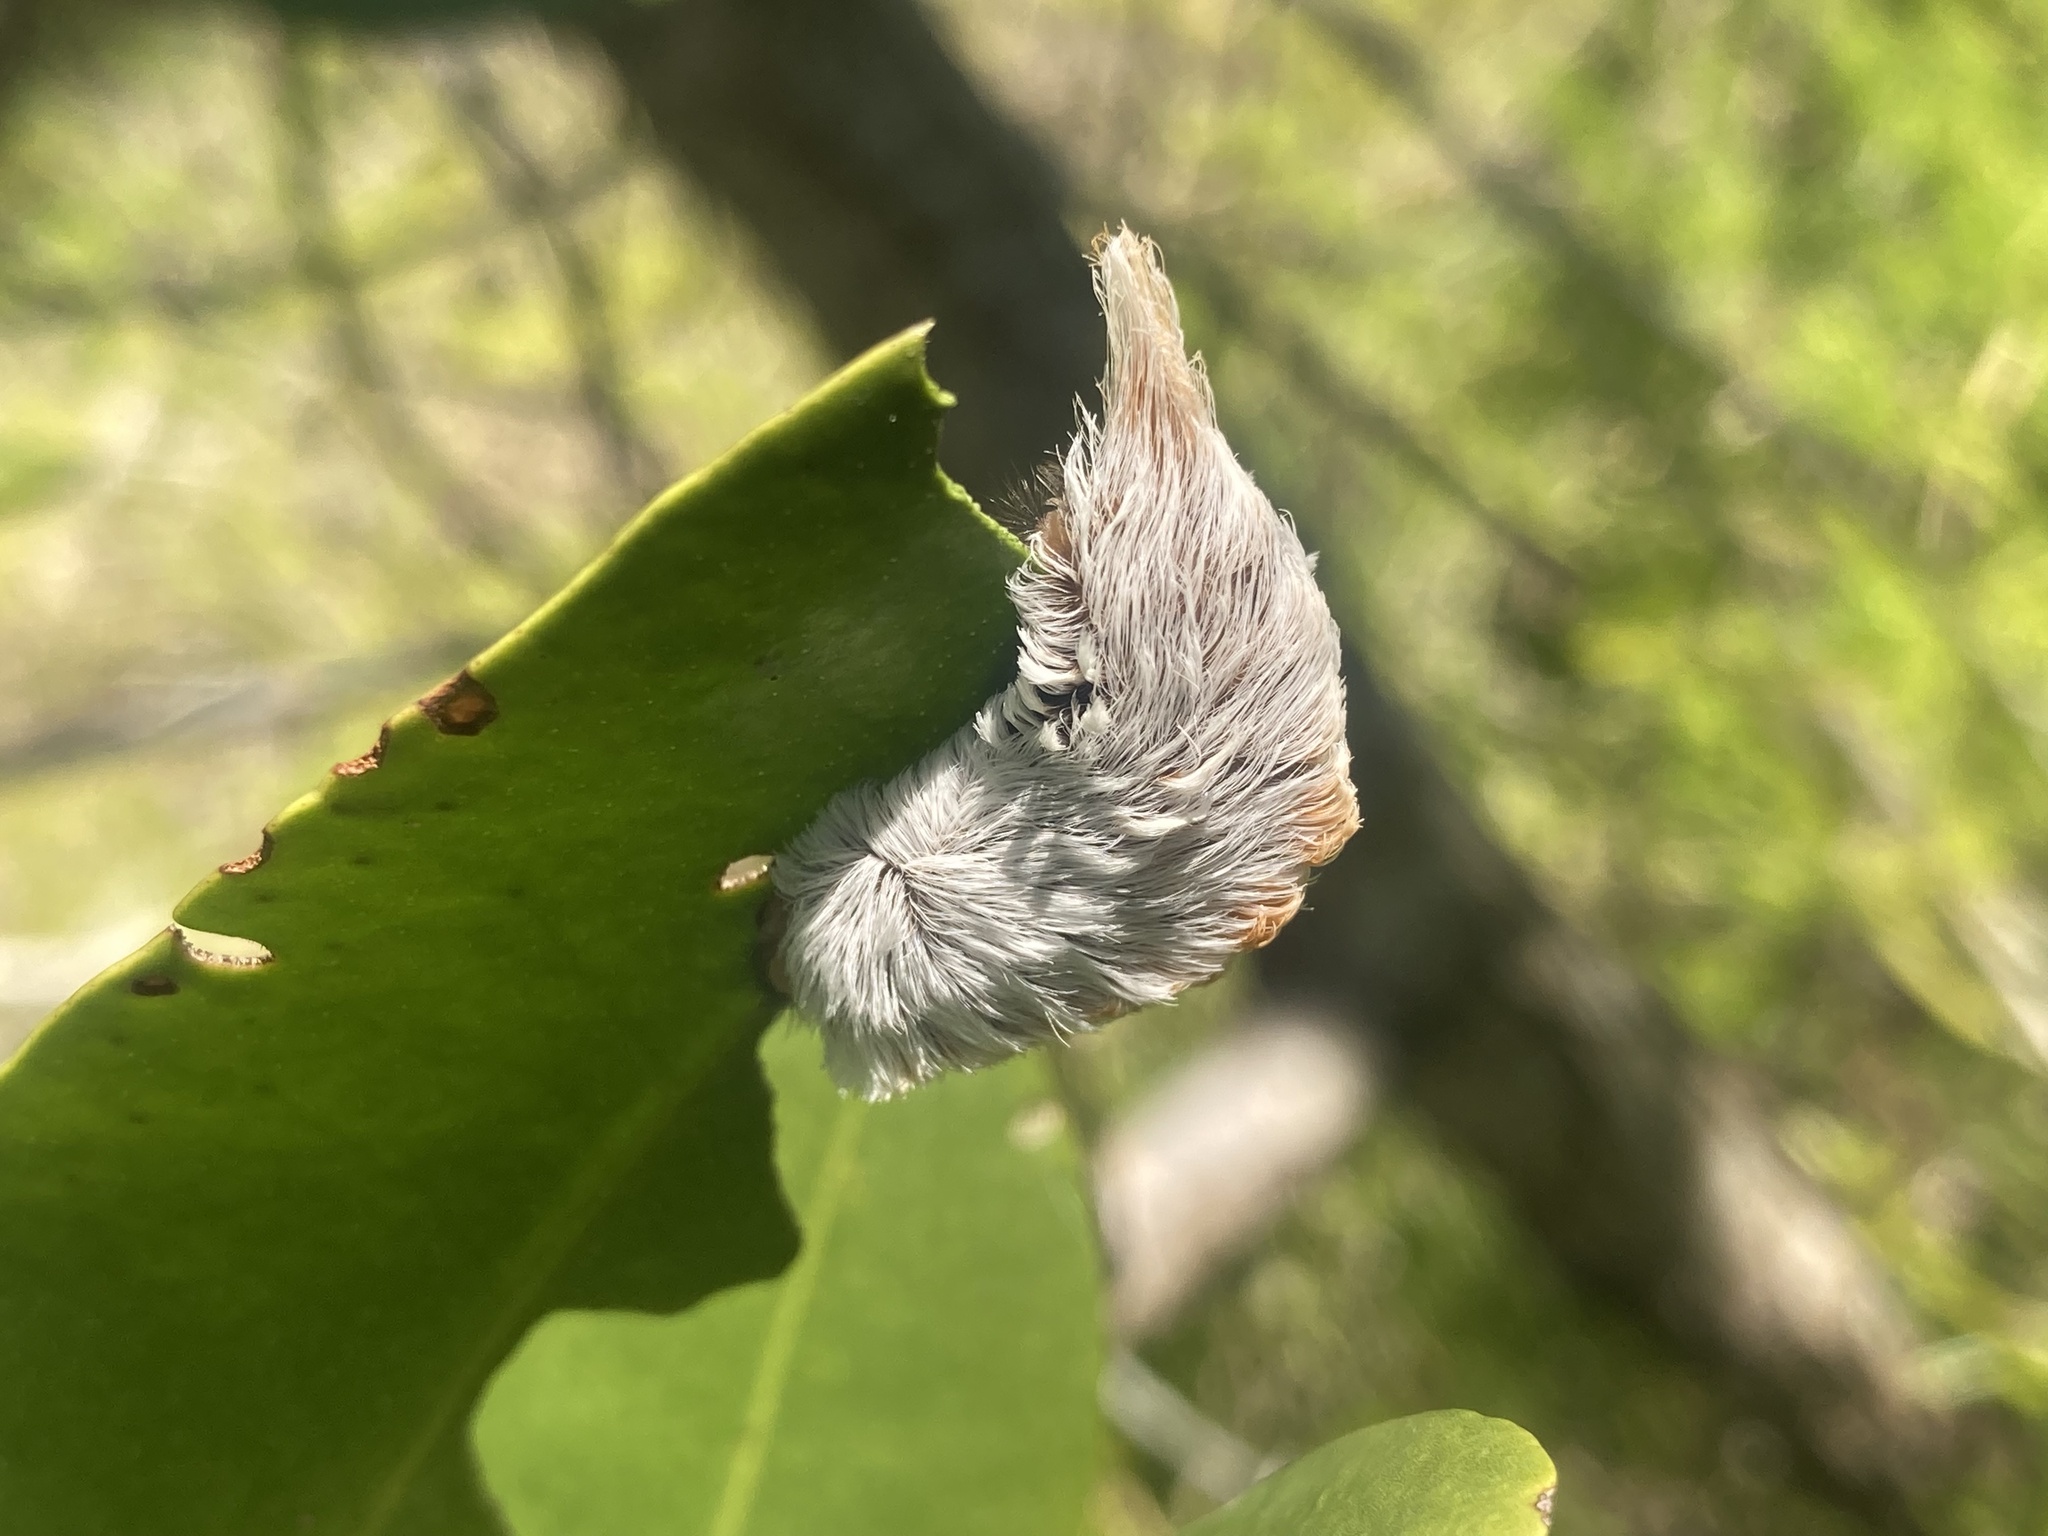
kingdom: Animalia
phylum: Arthropoda
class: Insecta
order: Lepidoptera
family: Megalopygidae
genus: Megalopyge
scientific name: Megalopyge opercularis
